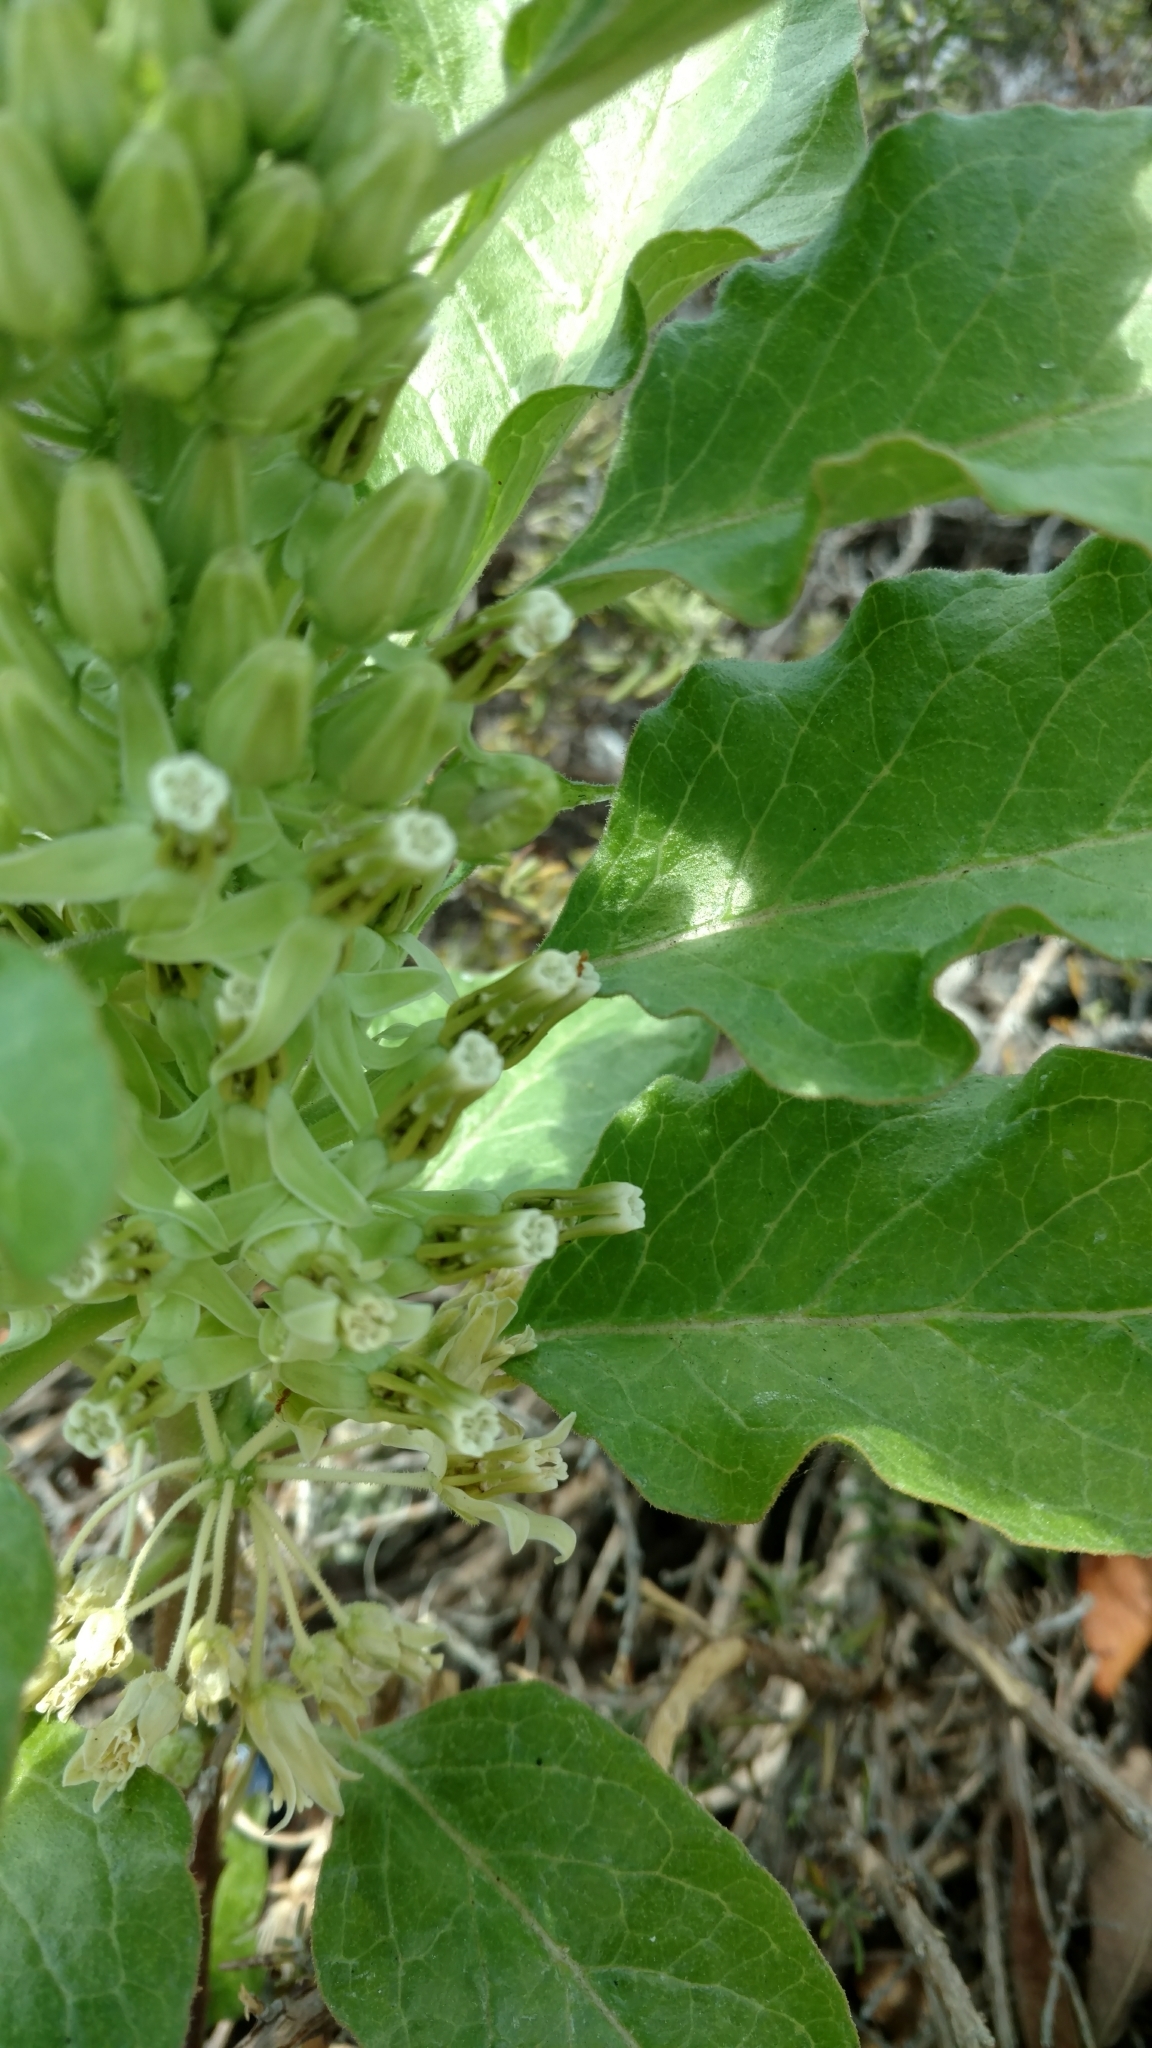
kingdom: Plantae
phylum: Tracheophyta
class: Magnoliopsida
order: Gentianales
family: Apocynaceae
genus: Asclepias
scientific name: Asclepias oenotheroides
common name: Zizotes milkweed
